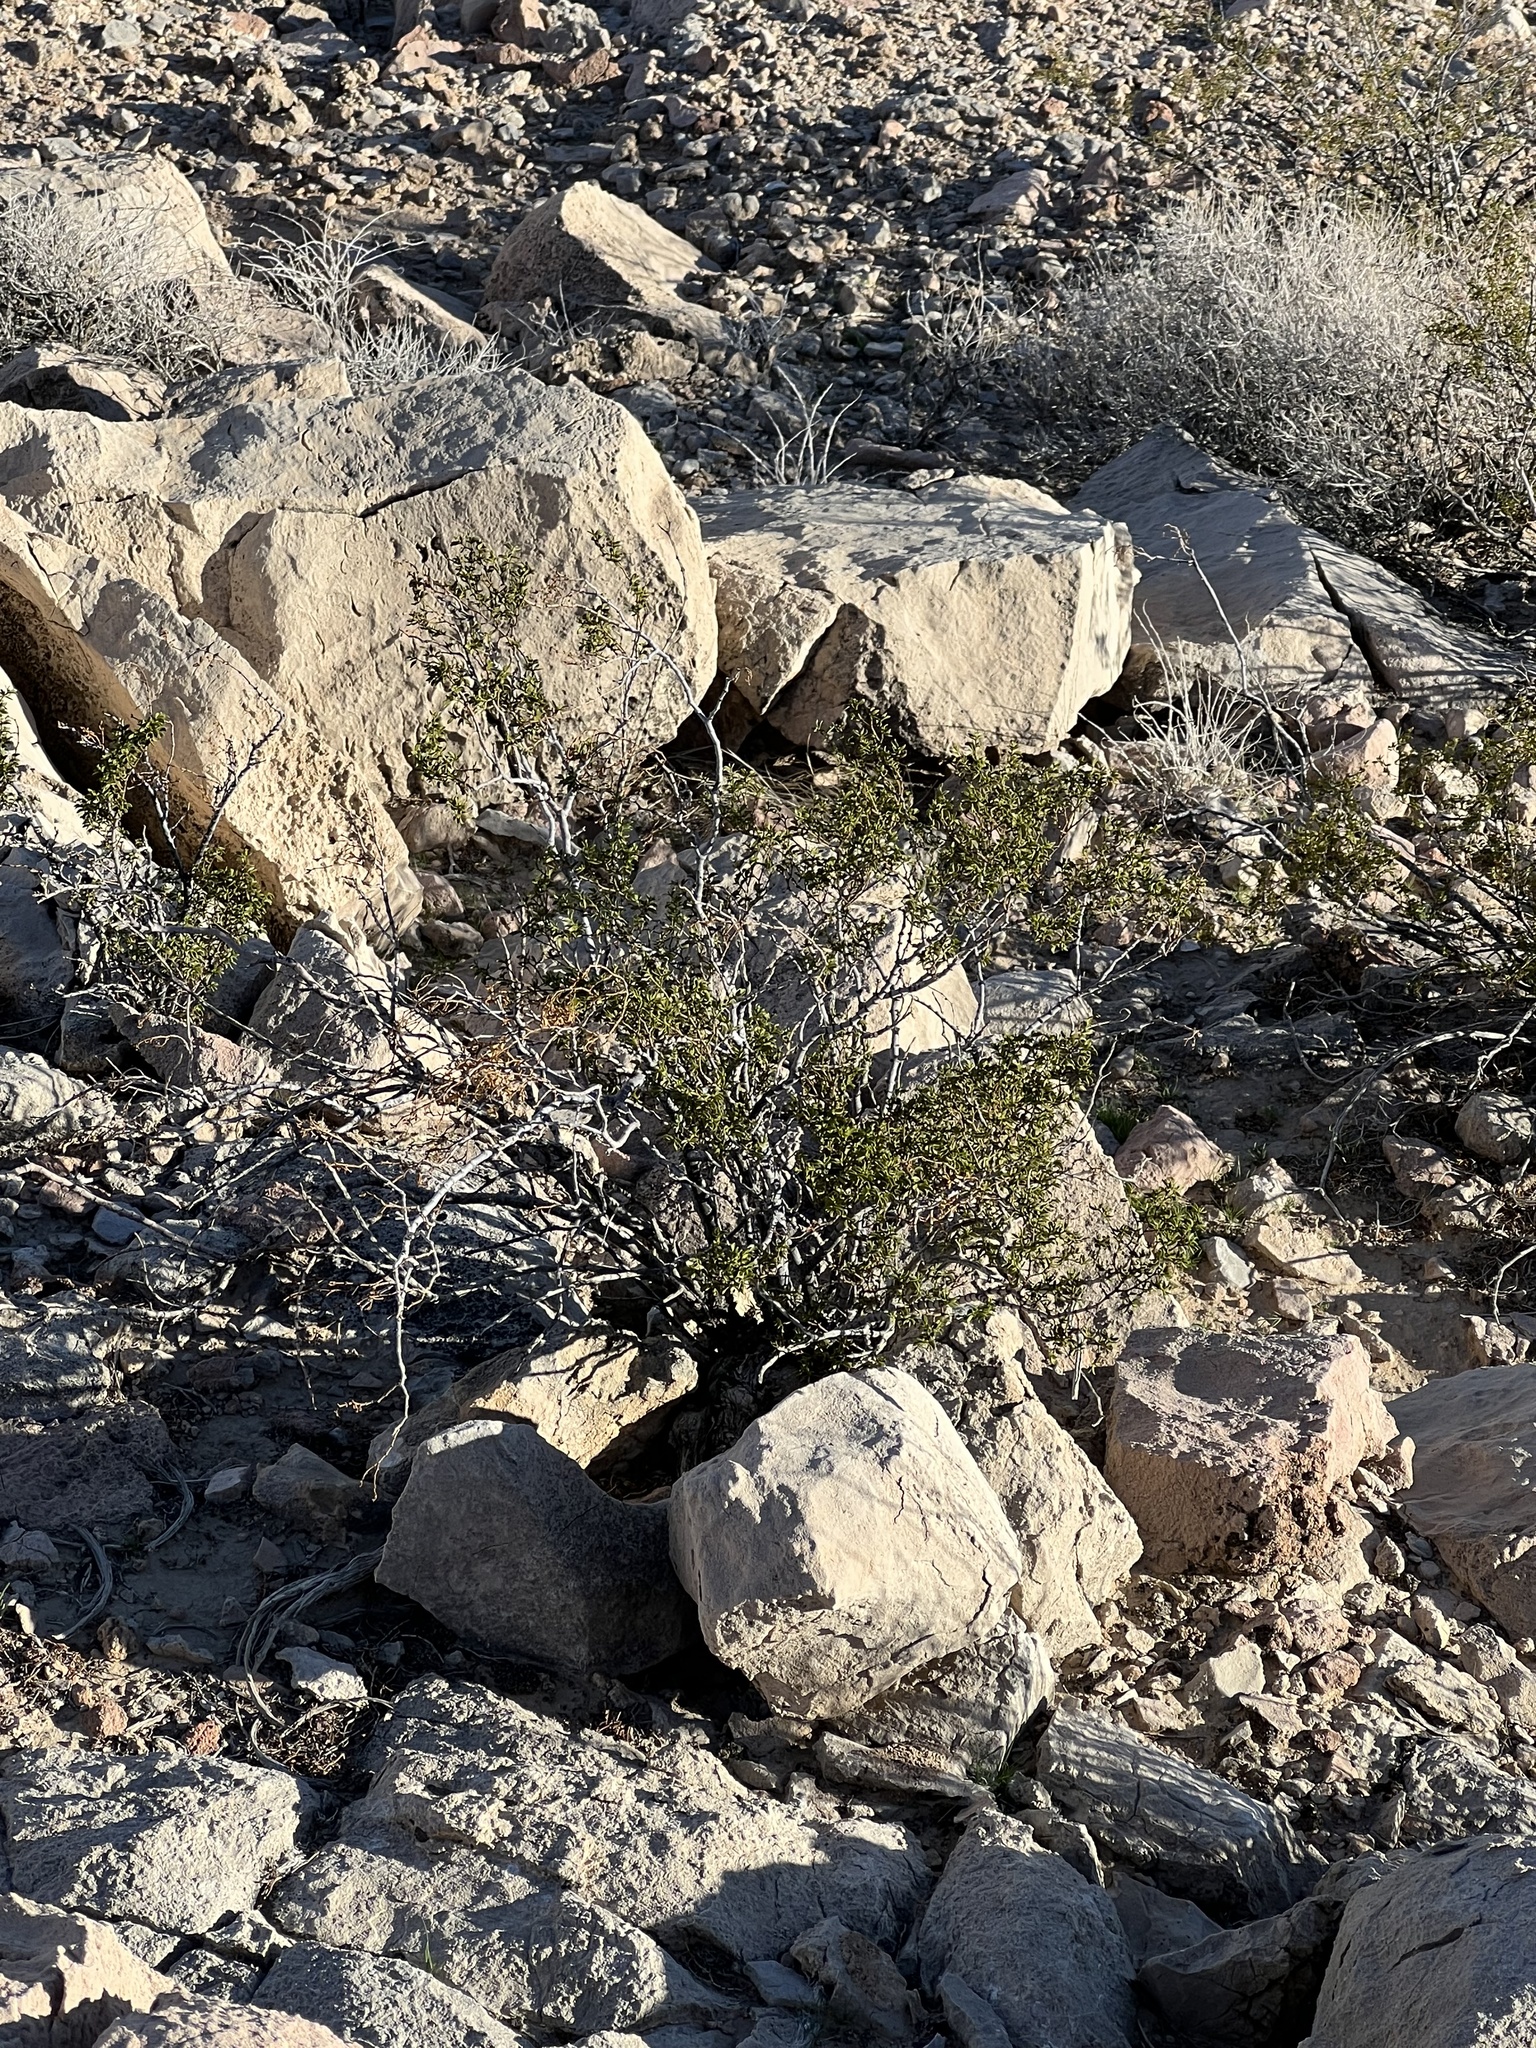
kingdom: Plantae
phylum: Tracheophyta
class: Magnoliopsida
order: Zygophyllales
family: Zygophyllaceae
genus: Larrea
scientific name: Larrea tridentata
